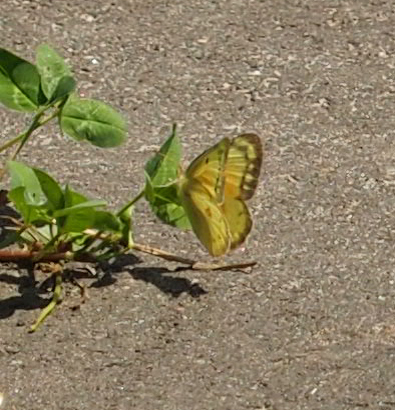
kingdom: Animalia
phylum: Arthropoda
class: Insecta
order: Lepidoptera
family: Pieridae
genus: Colias
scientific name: Colias eurytheme
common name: Alfalfa butterfly
